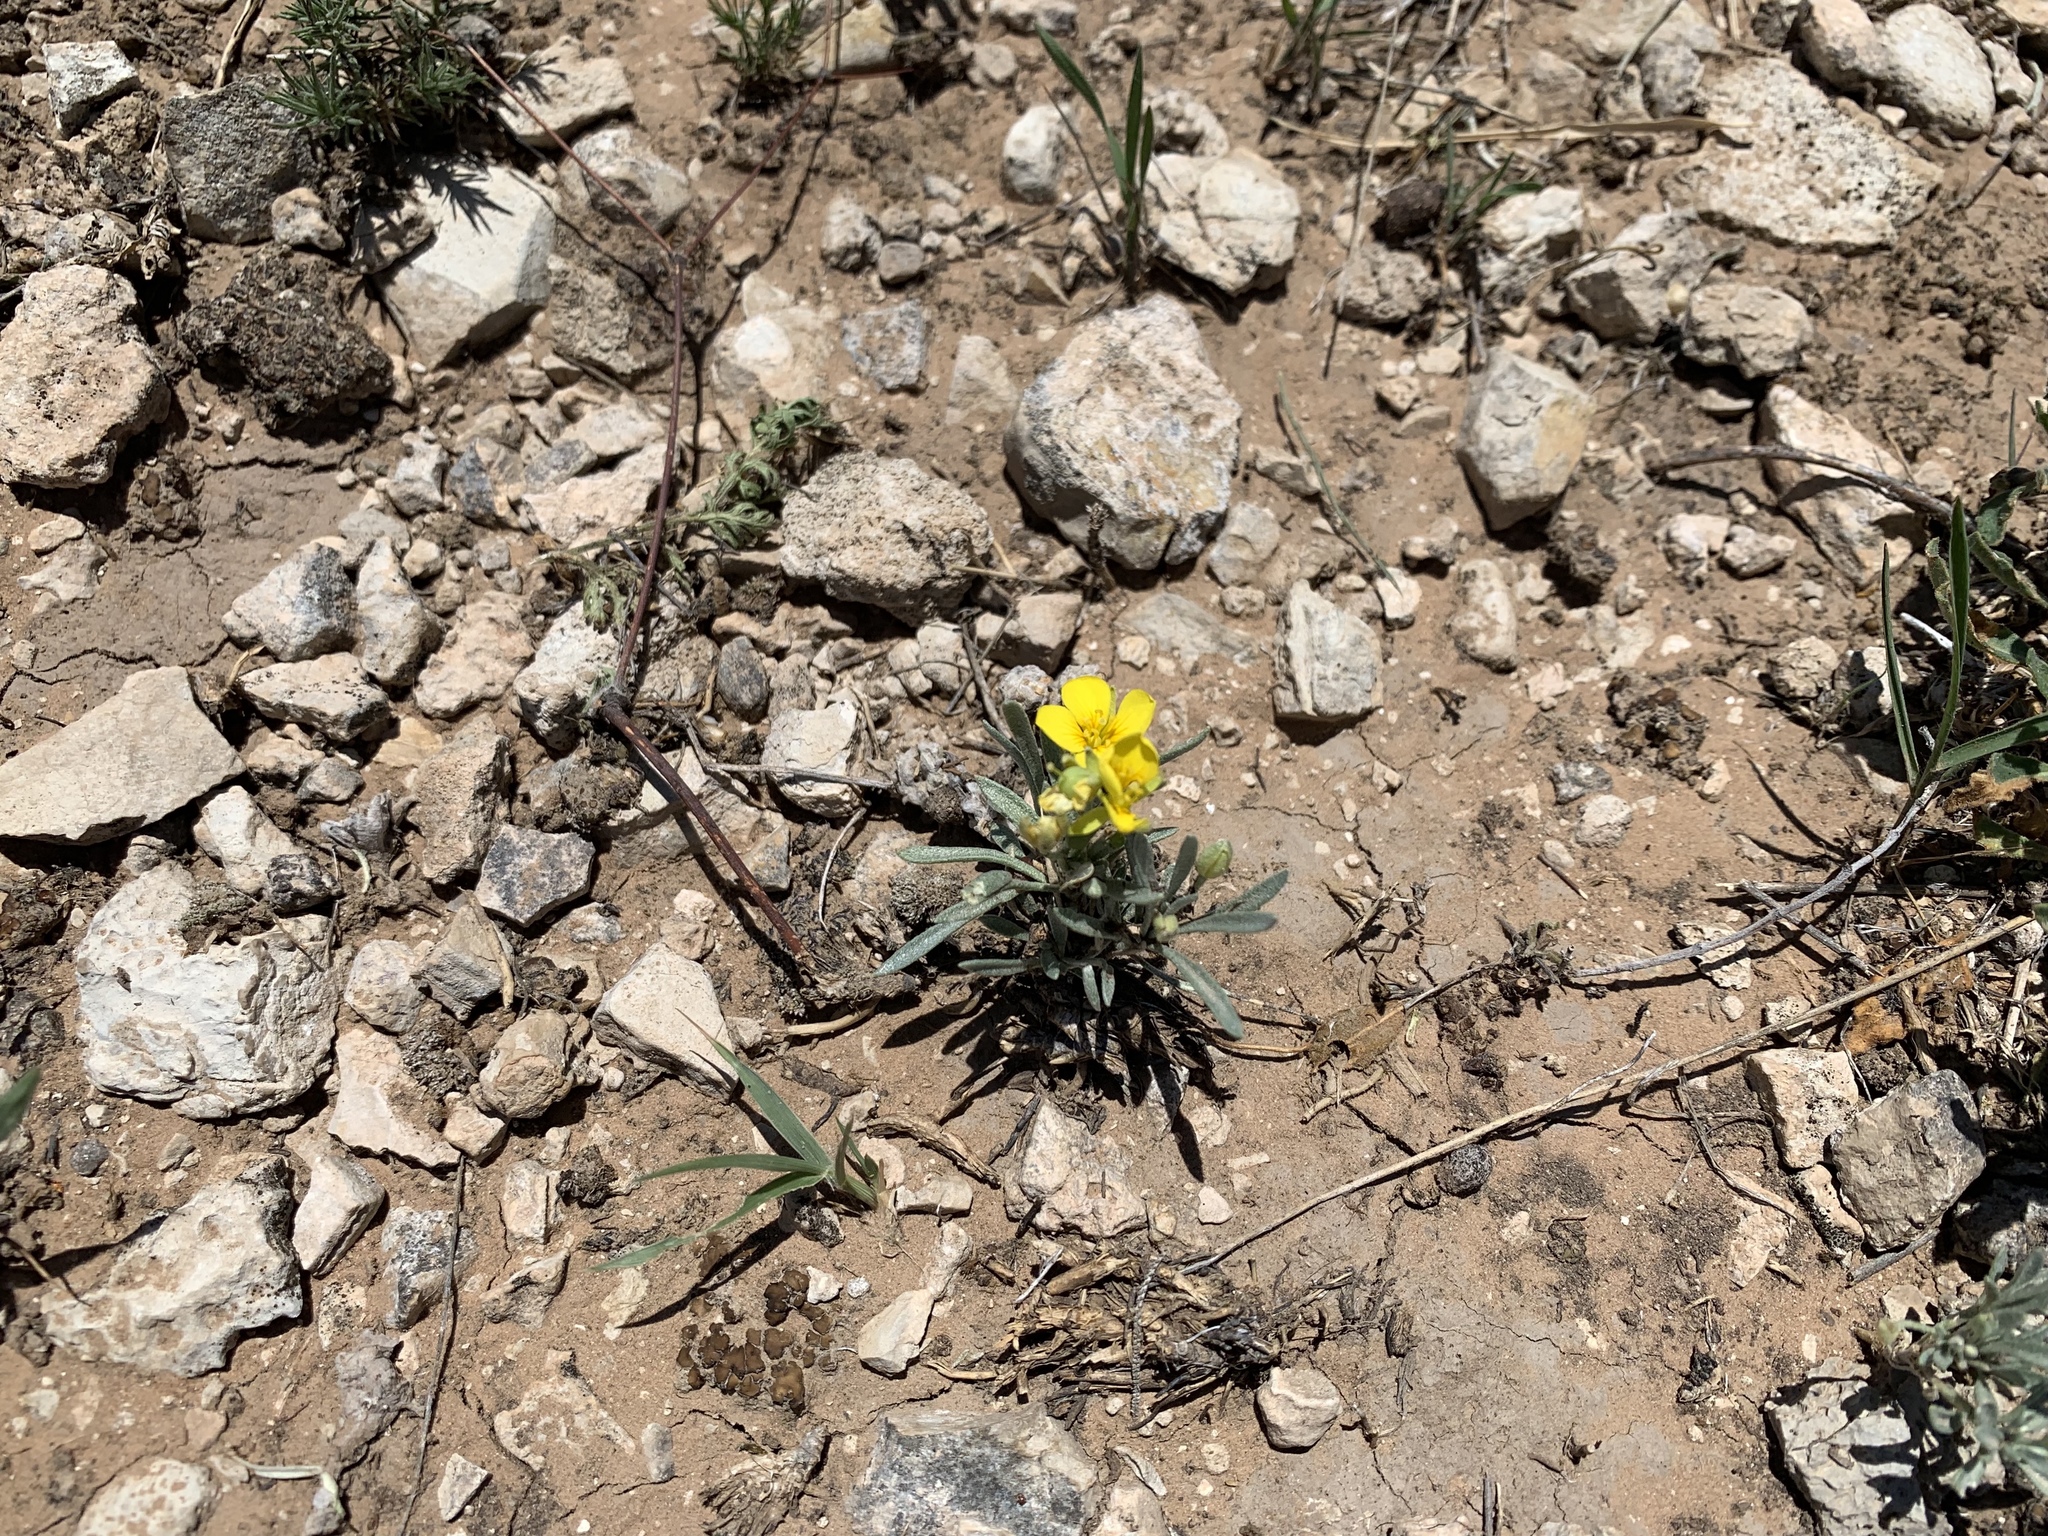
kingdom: Plantae
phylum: Tracheophyta
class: Magnoliopsida
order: Brassicales
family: Brassicaceae
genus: Physaria
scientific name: Physaria fendleri
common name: Fendler's bladderpod
